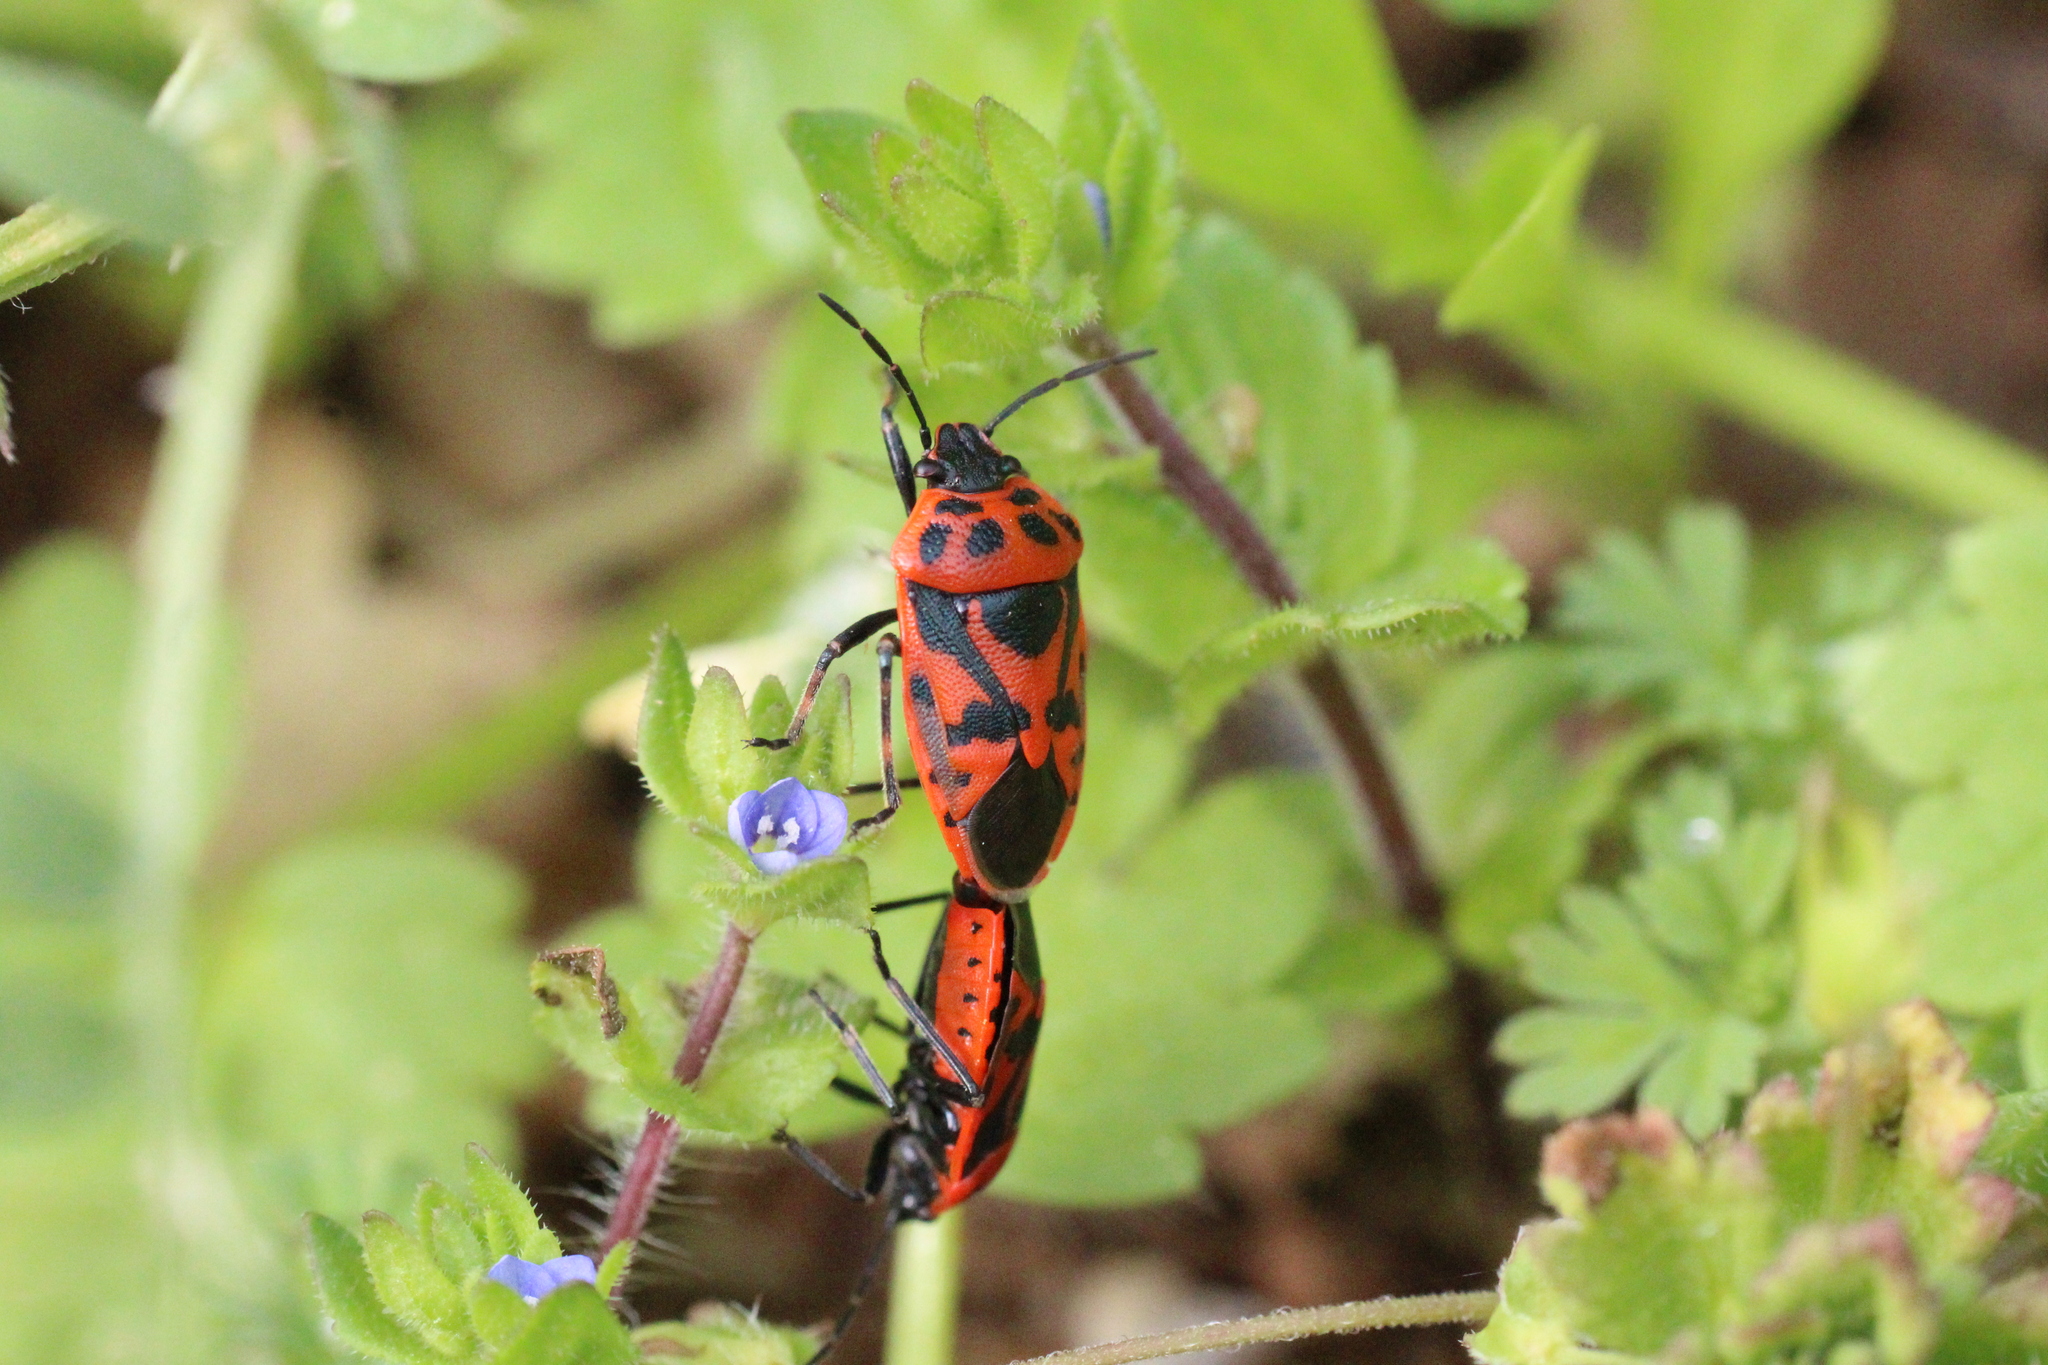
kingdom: Animalia
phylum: Arthropoda
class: Insecta
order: Hemiptera
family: Pentatomidae
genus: Eurydema
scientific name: Eurydema ornata
